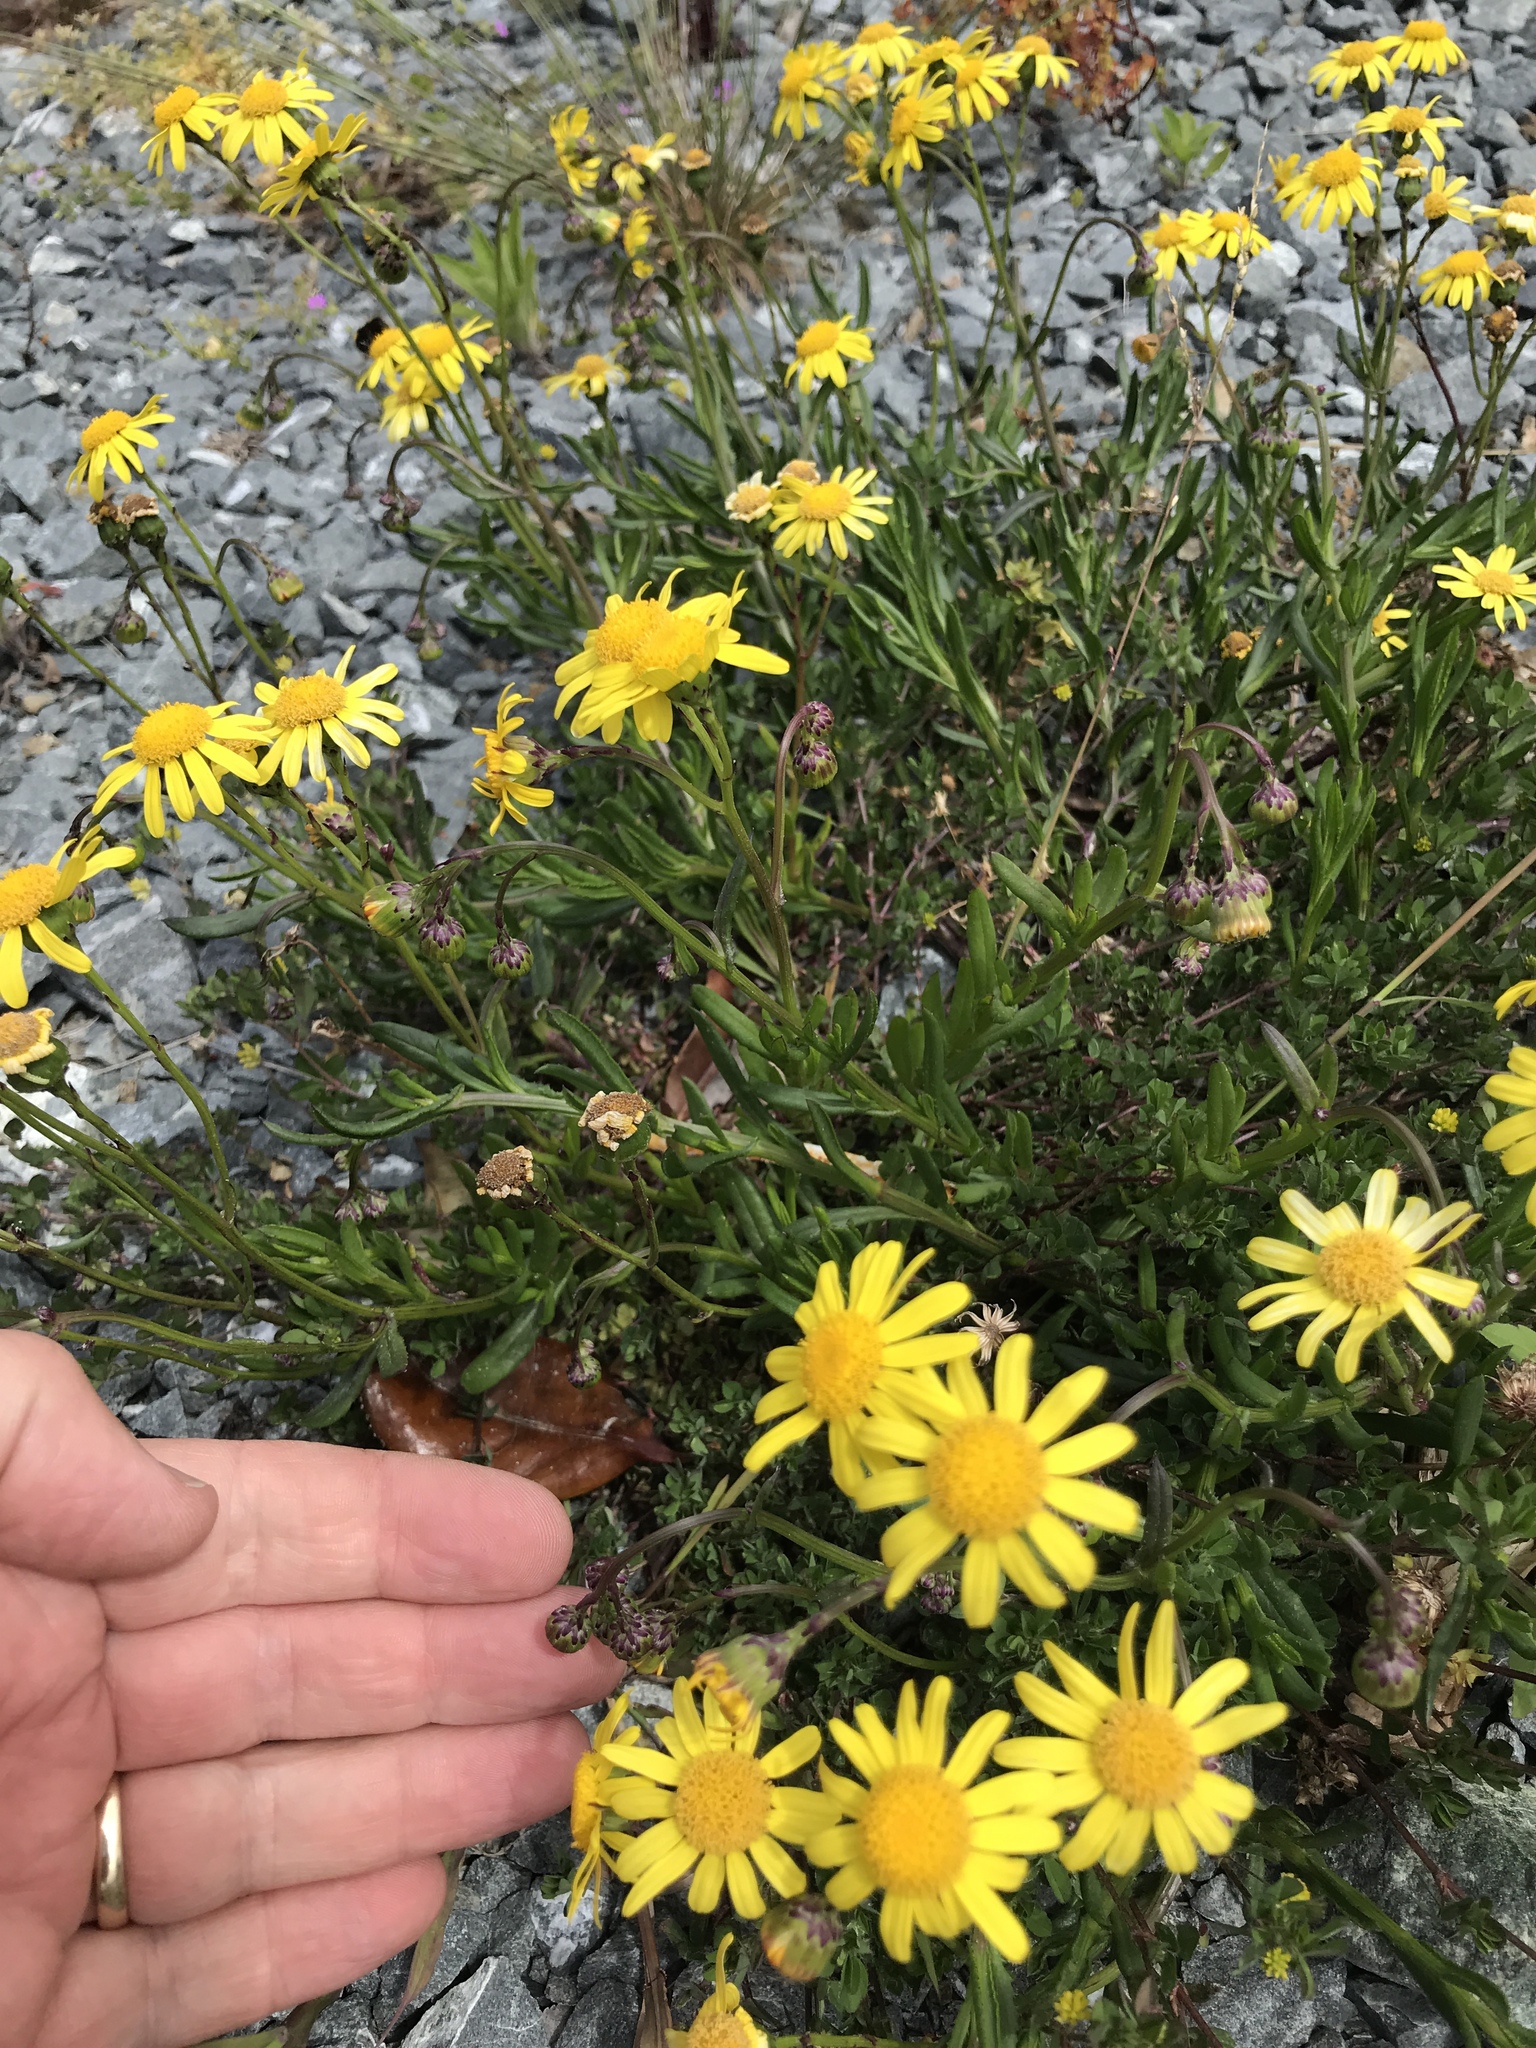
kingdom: Plantae
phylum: Tracheophyta
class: Magnoliopsida
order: Asterales
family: Asteraceae
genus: Senecio
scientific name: Senecio skirrhodon
